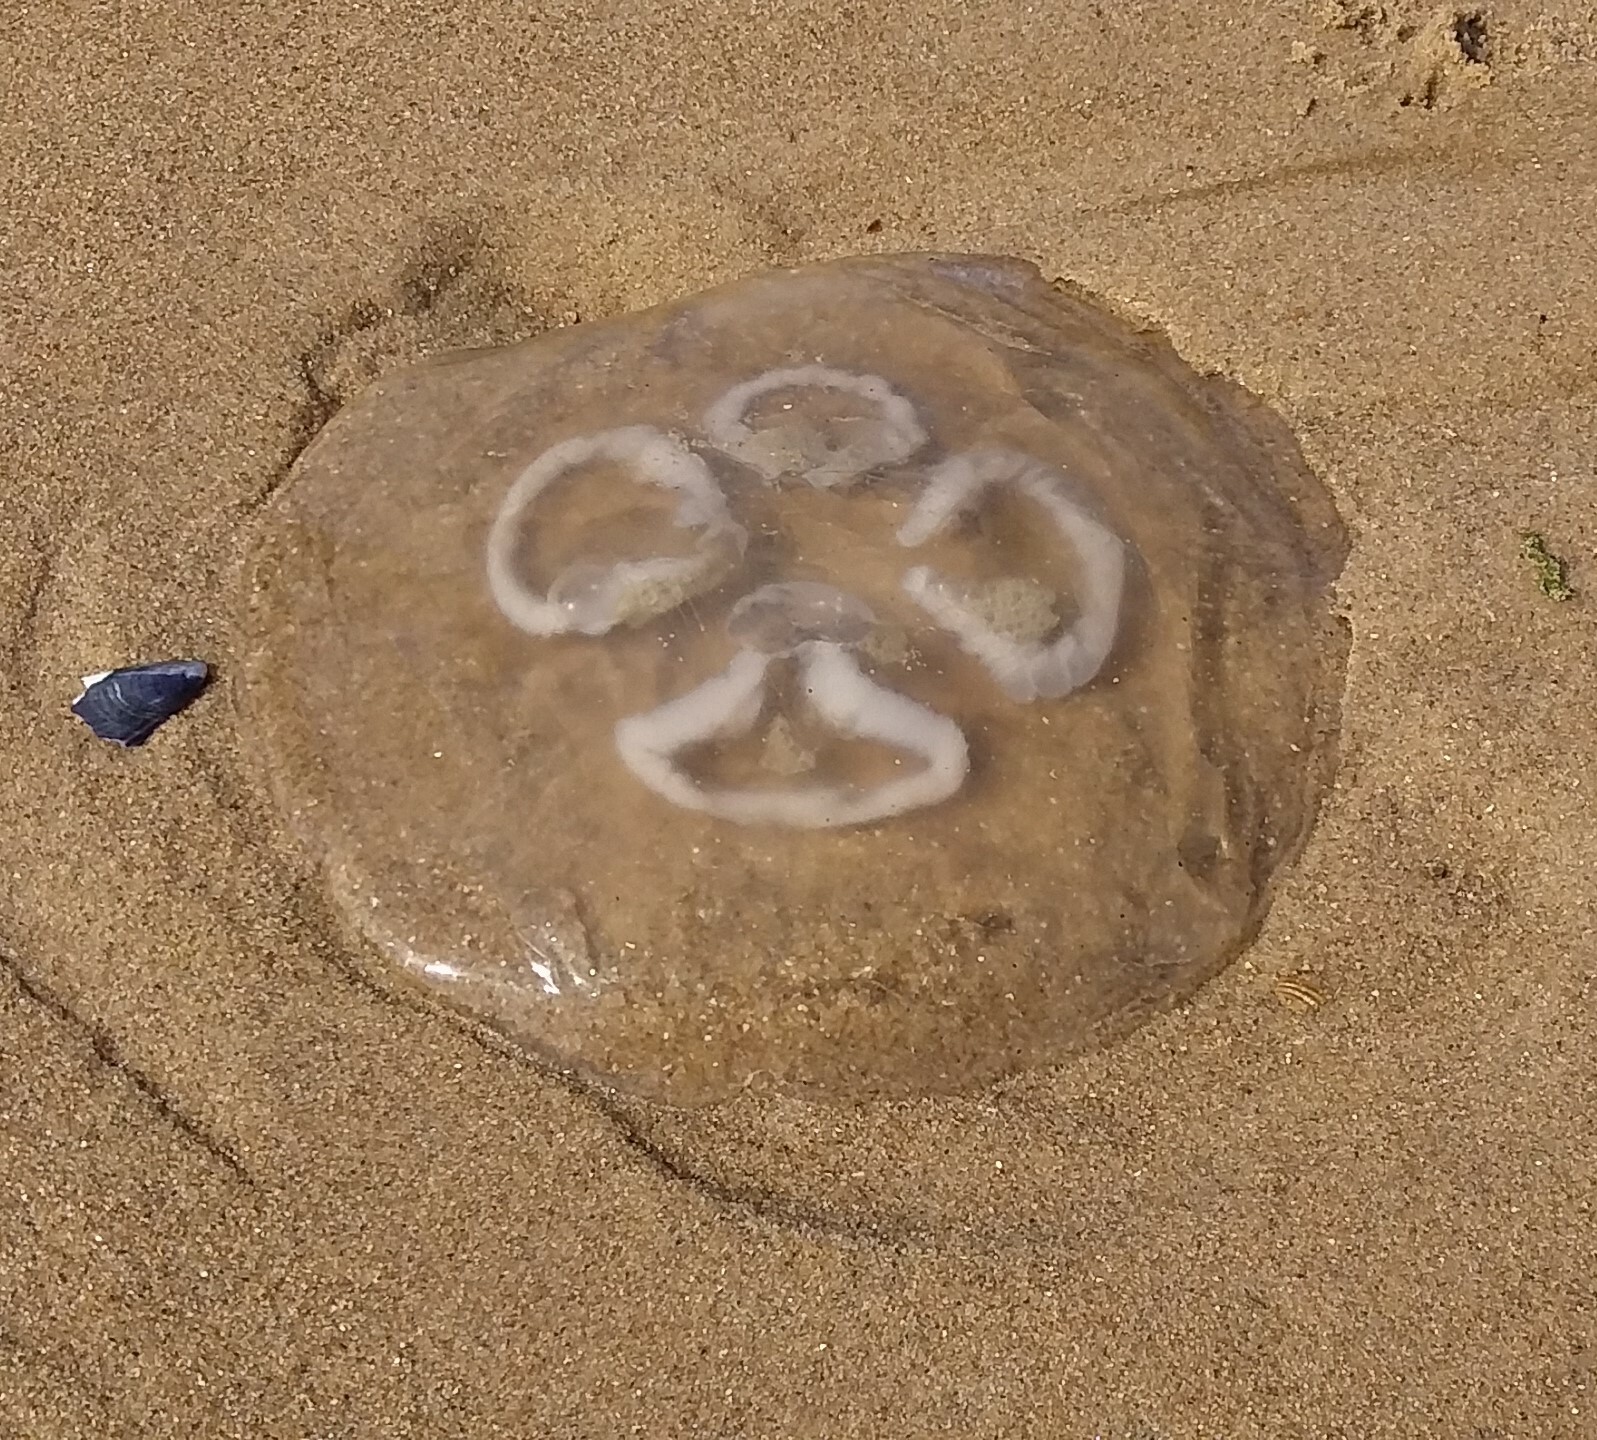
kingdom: Animalia
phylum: Cnidaria
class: Scyphozoa
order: Semaeostomeae
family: Ulmaridae
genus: Aurelia
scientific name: Aurelia aurita
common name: Moon jellyfish
